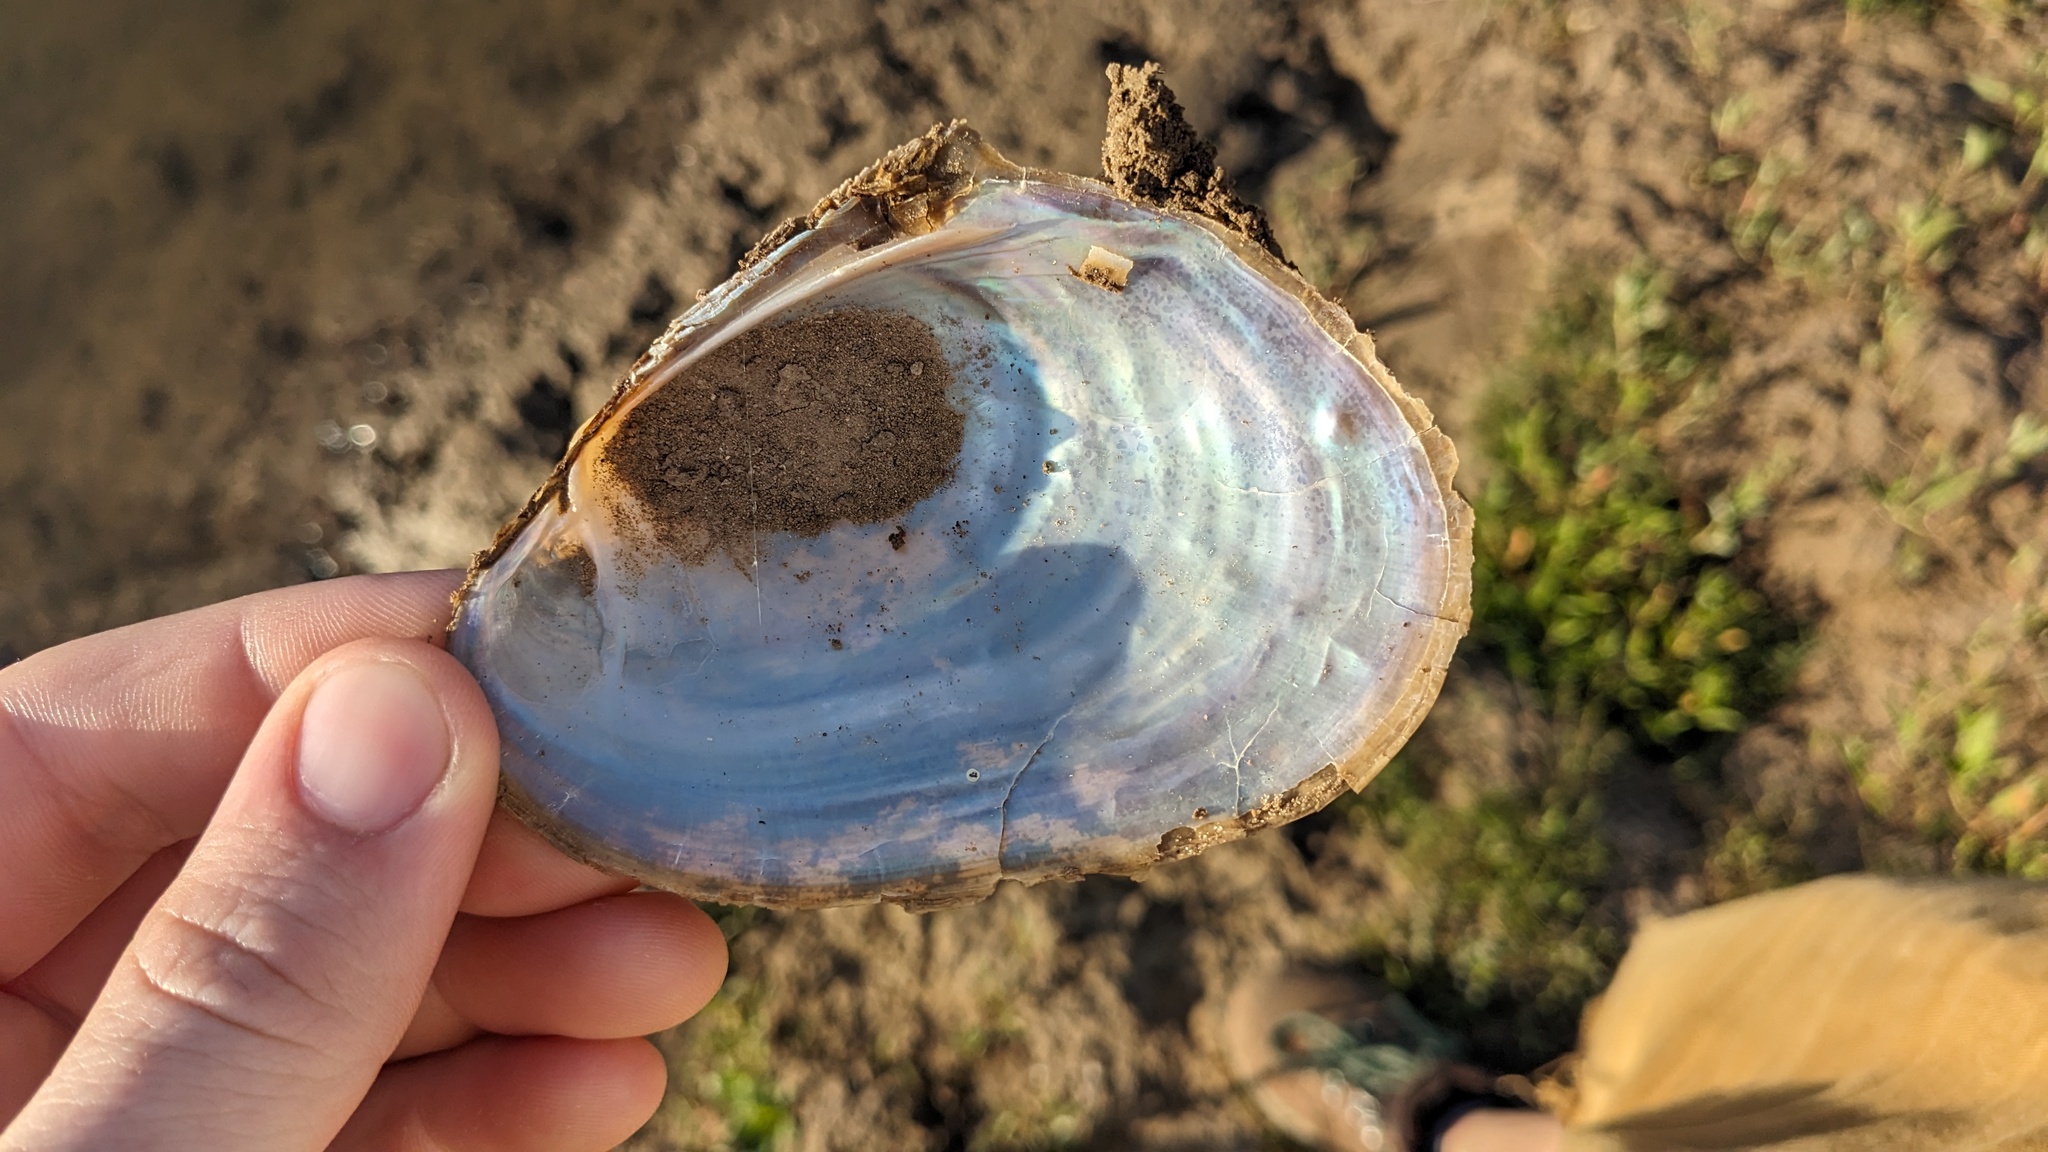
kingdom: Animalia
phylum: Mollusca
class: Bivalvia
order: Unionida
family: Unionidae
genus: Potamilus
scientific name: Potamilus fragilis
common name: Fragile papershell
